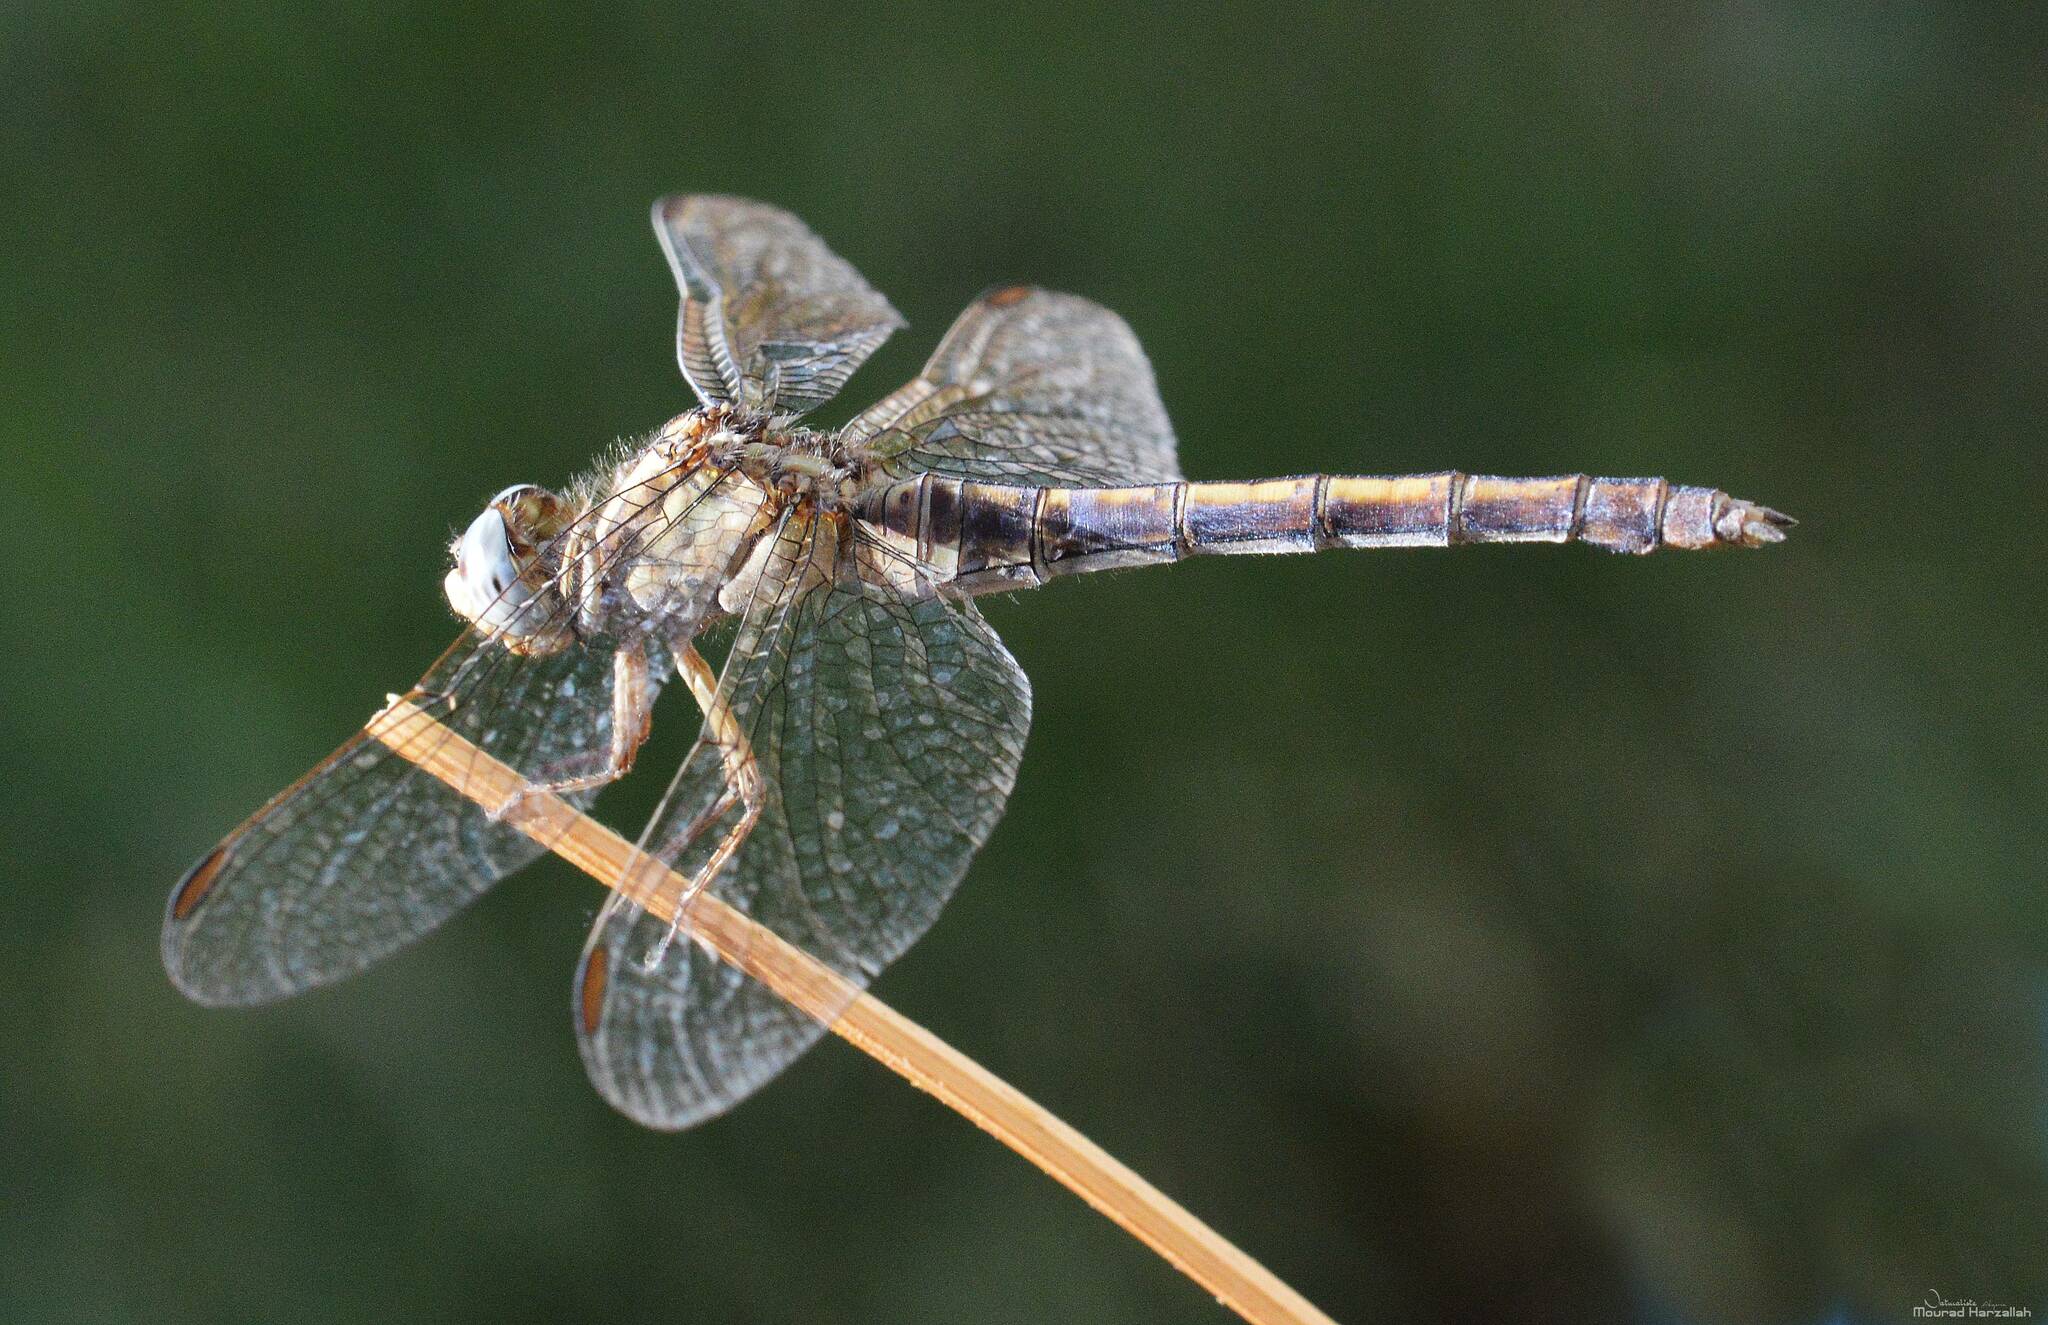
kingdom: Animalia
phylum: Arthropoda
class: Insecta
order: Odonata
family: Libellulidae
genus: Orthetrum
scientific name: Orthetrum coerulescens
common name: Keeled skimmer
